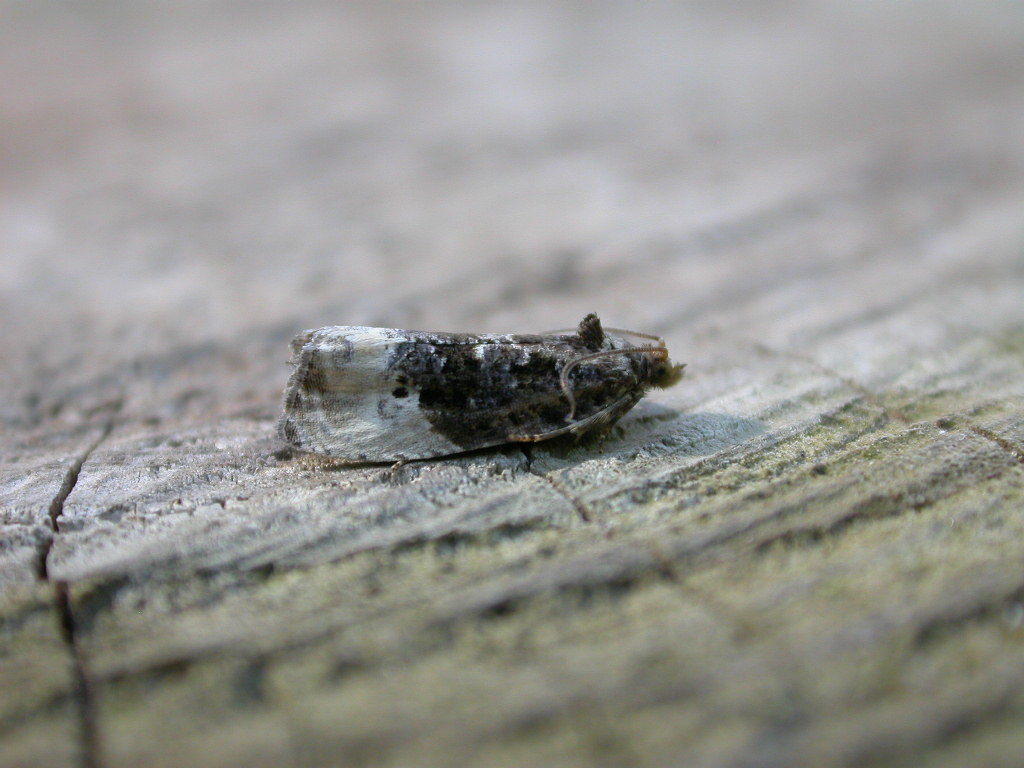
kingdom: Animalia
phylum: Arthropoda
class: Insecta
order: Lepidoptera
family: Tortricidae
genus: Hedya
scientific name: Hedya nubiferana
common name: Marbled orchard tortrix
